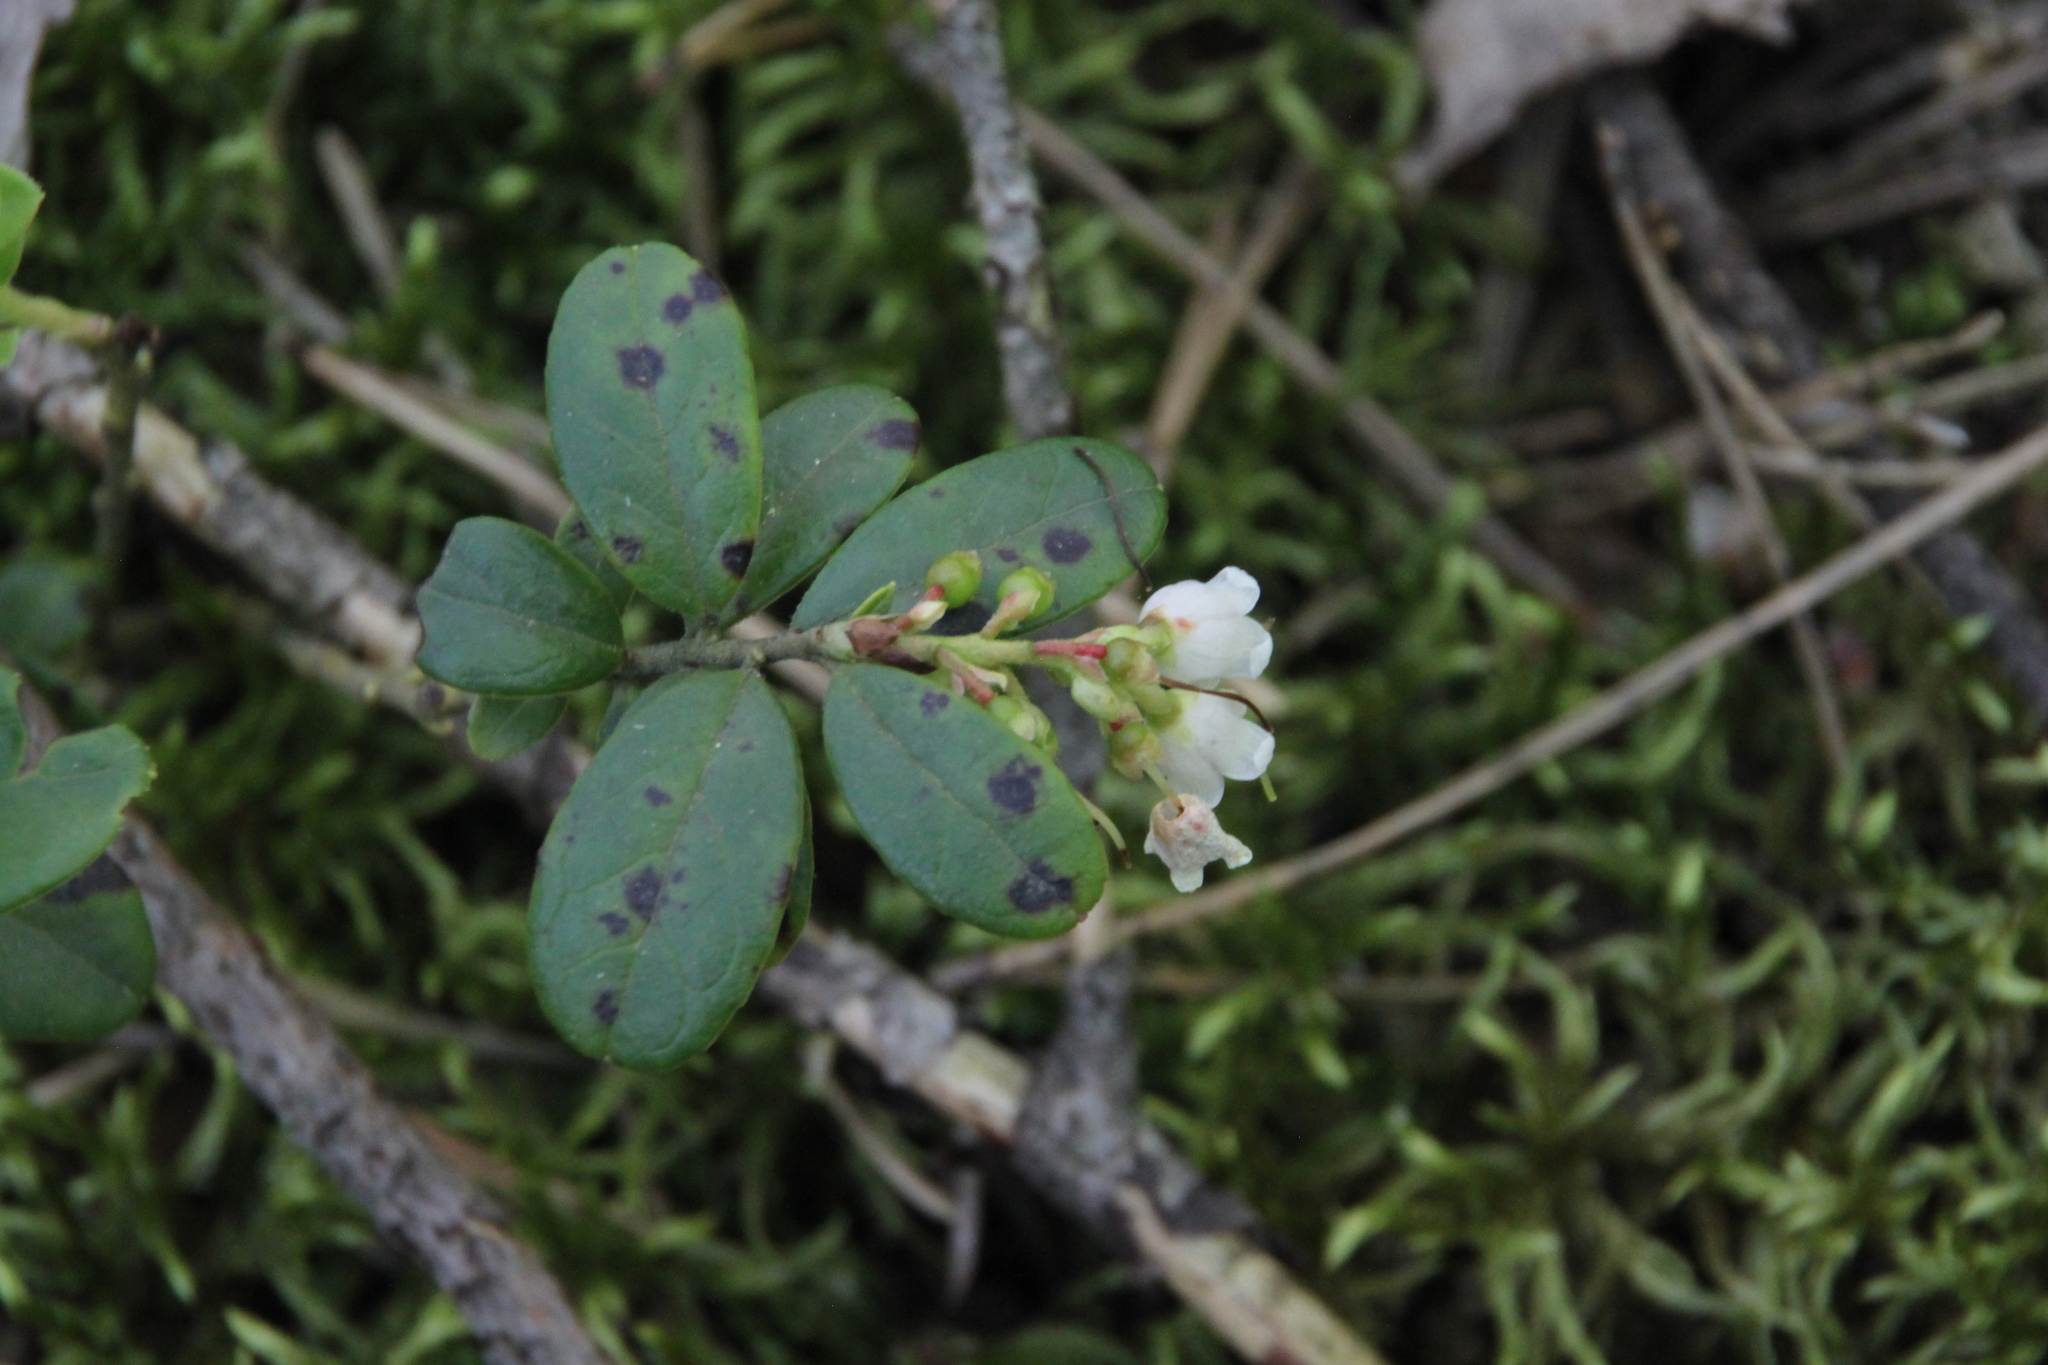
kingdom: Plantae
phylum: Tracheophyta
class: Magnoliopsida
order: Ericales
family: Ericaceae
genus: Vaccinium
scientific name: Vaccinium vitis-idaea
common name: Cowberry
